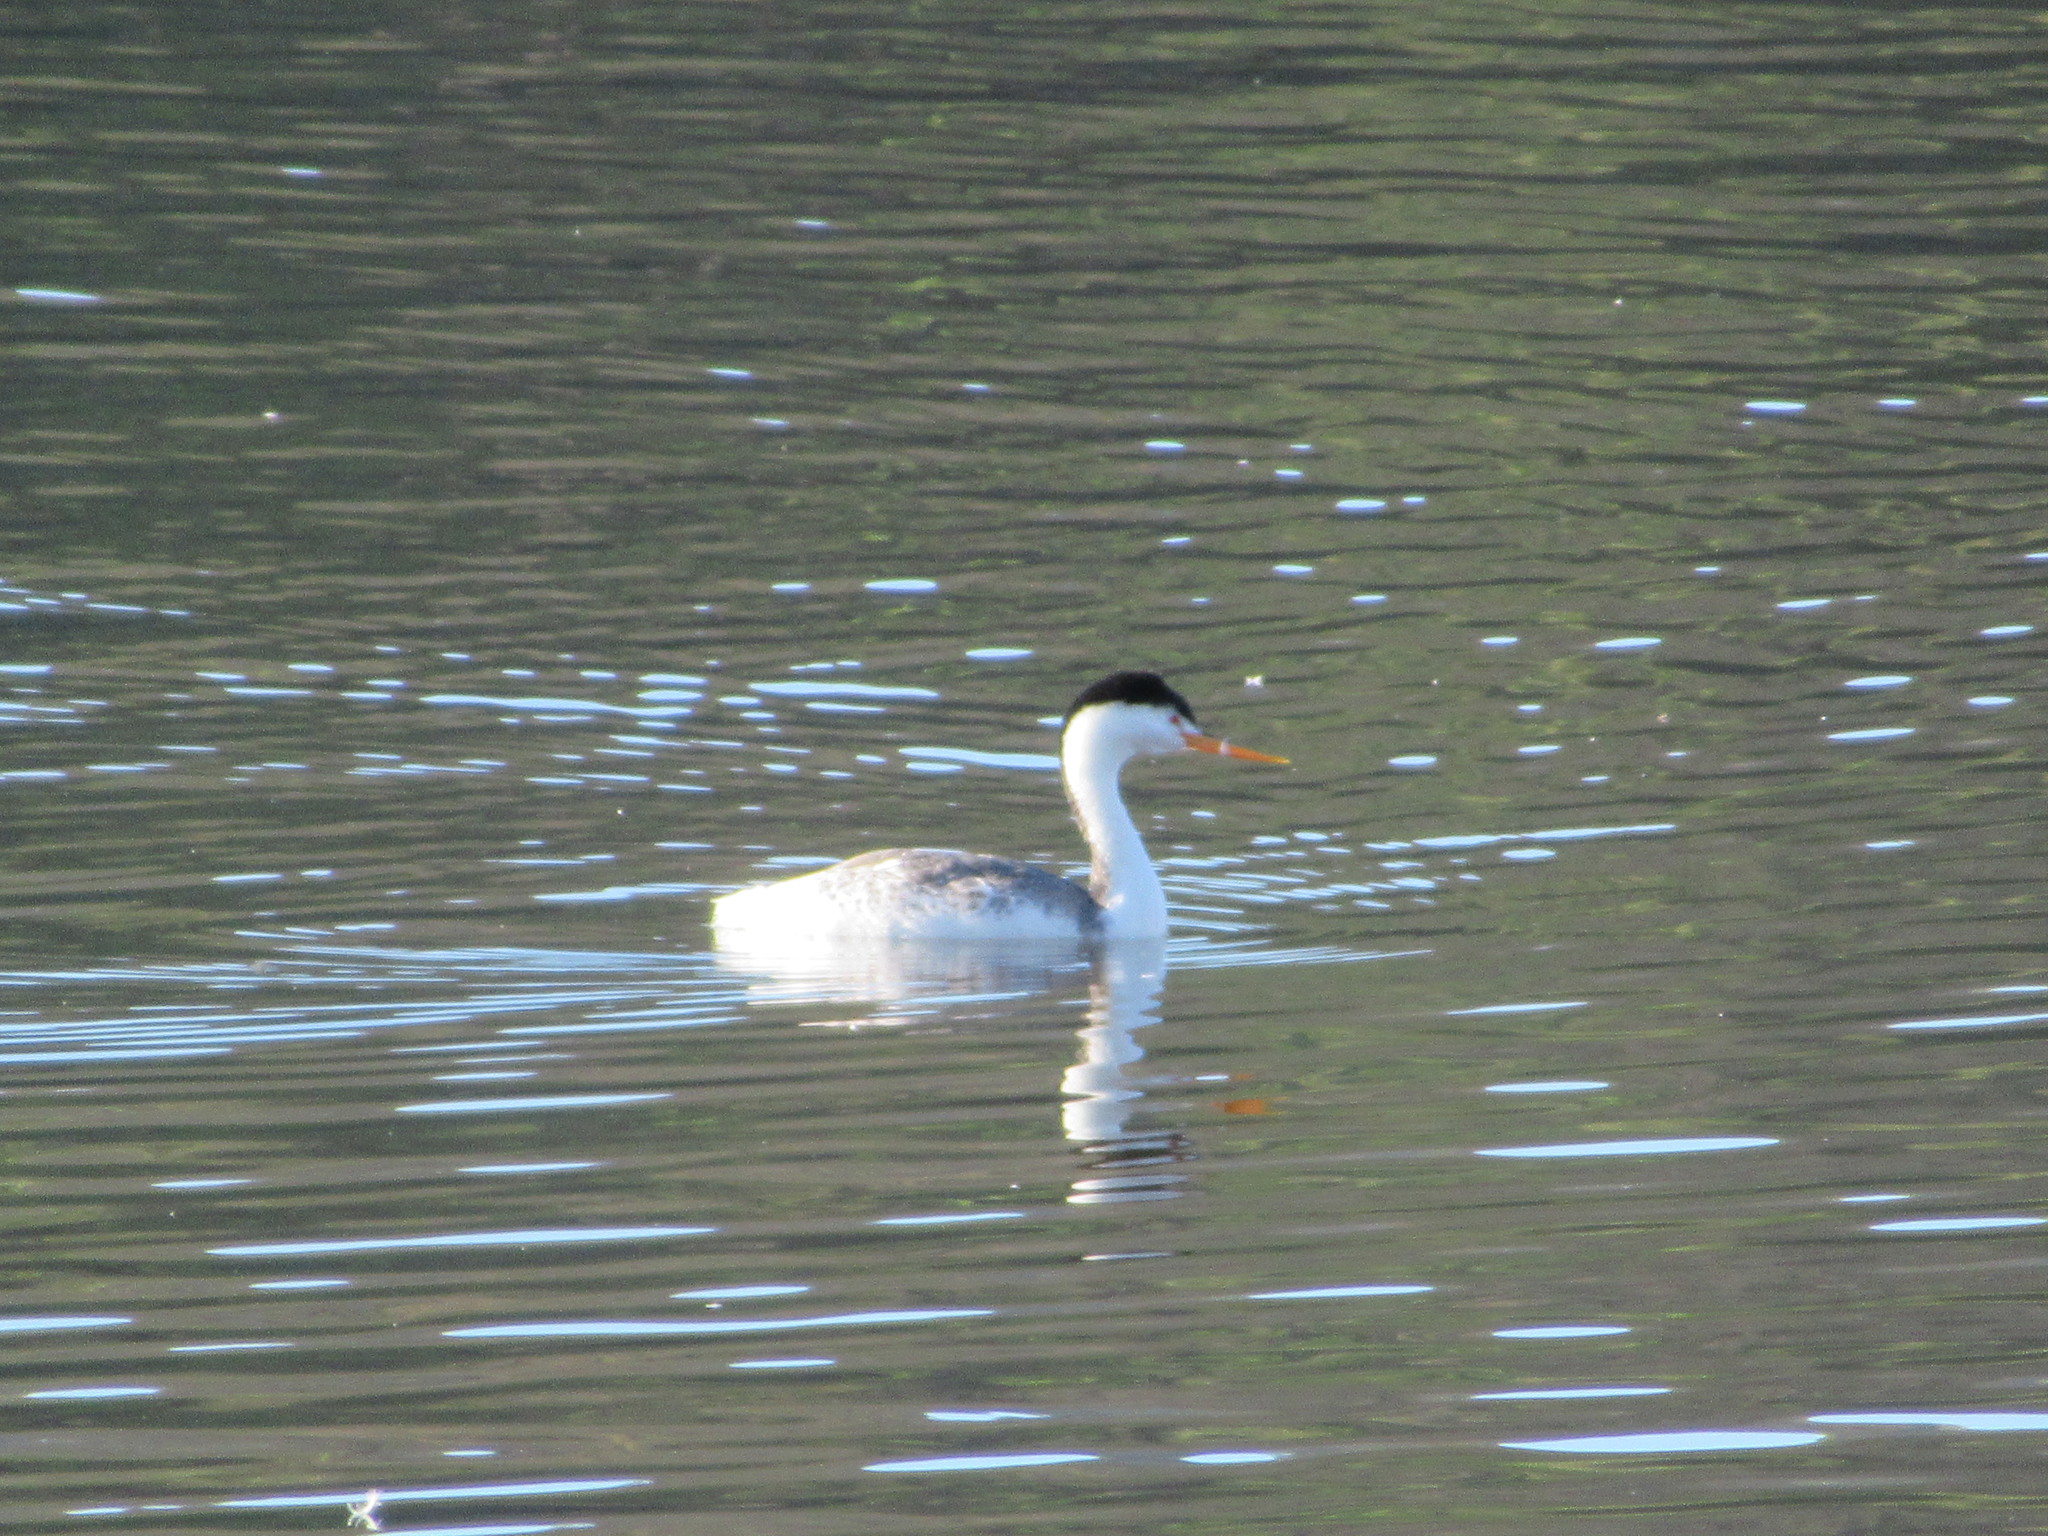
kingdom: Animalia
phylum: Chordata
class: Aves
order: Podicipediformes
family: Podicipedidae
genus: Aechmophorus
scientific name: Aechmophorus clarkii
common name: Clark's grebe
